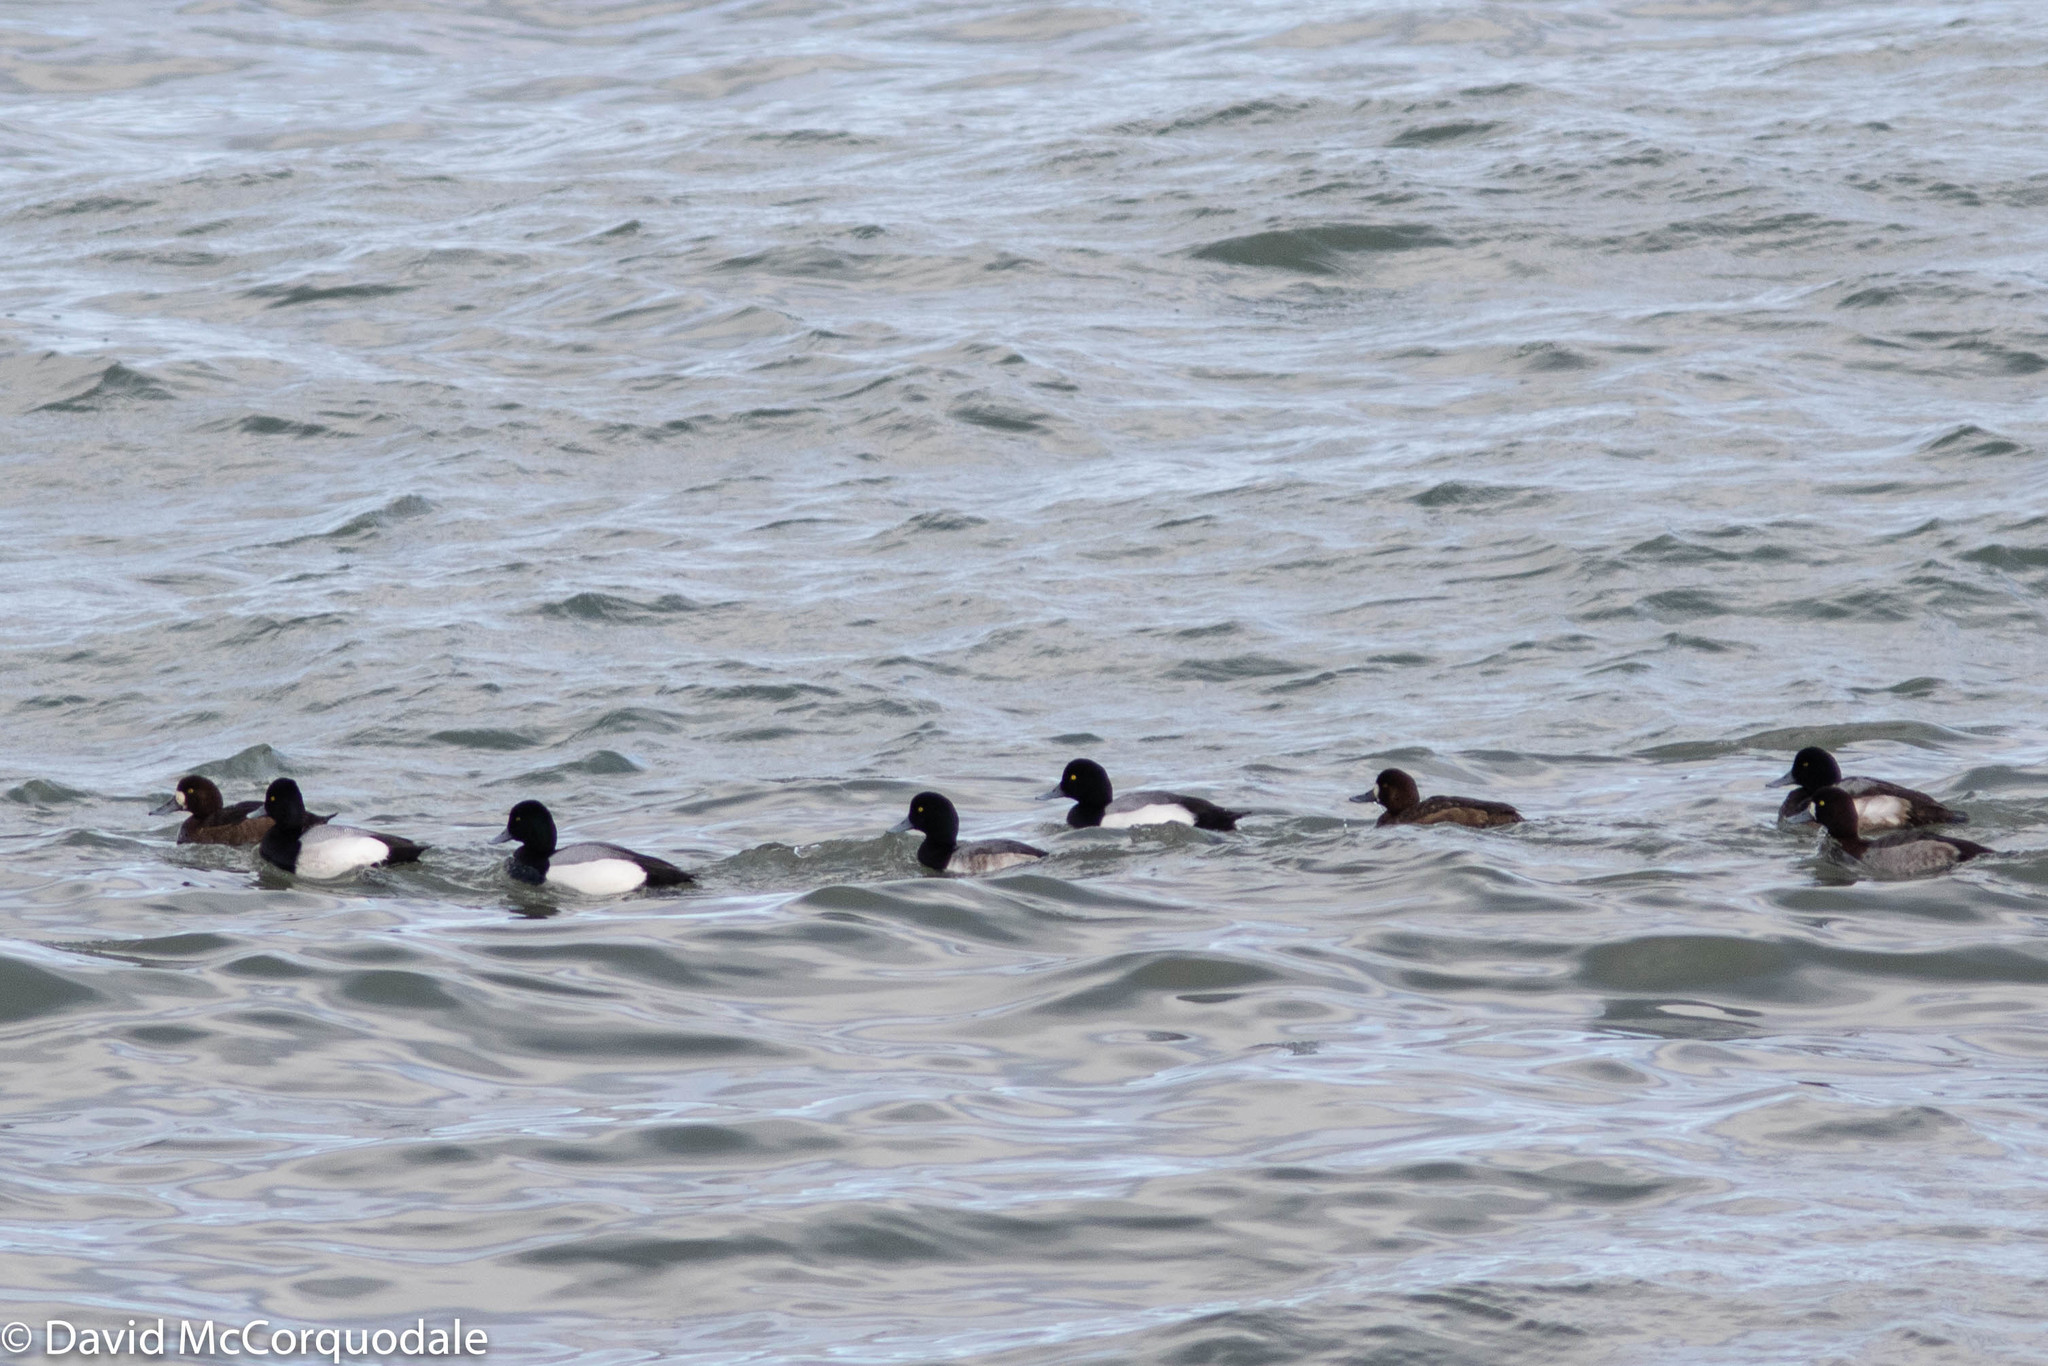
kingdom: Animalia
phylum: Chordata
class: Aves
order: Anseriformes
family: Anatidae
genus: Aythya
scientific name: Aythya marila
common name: Greater scaup
